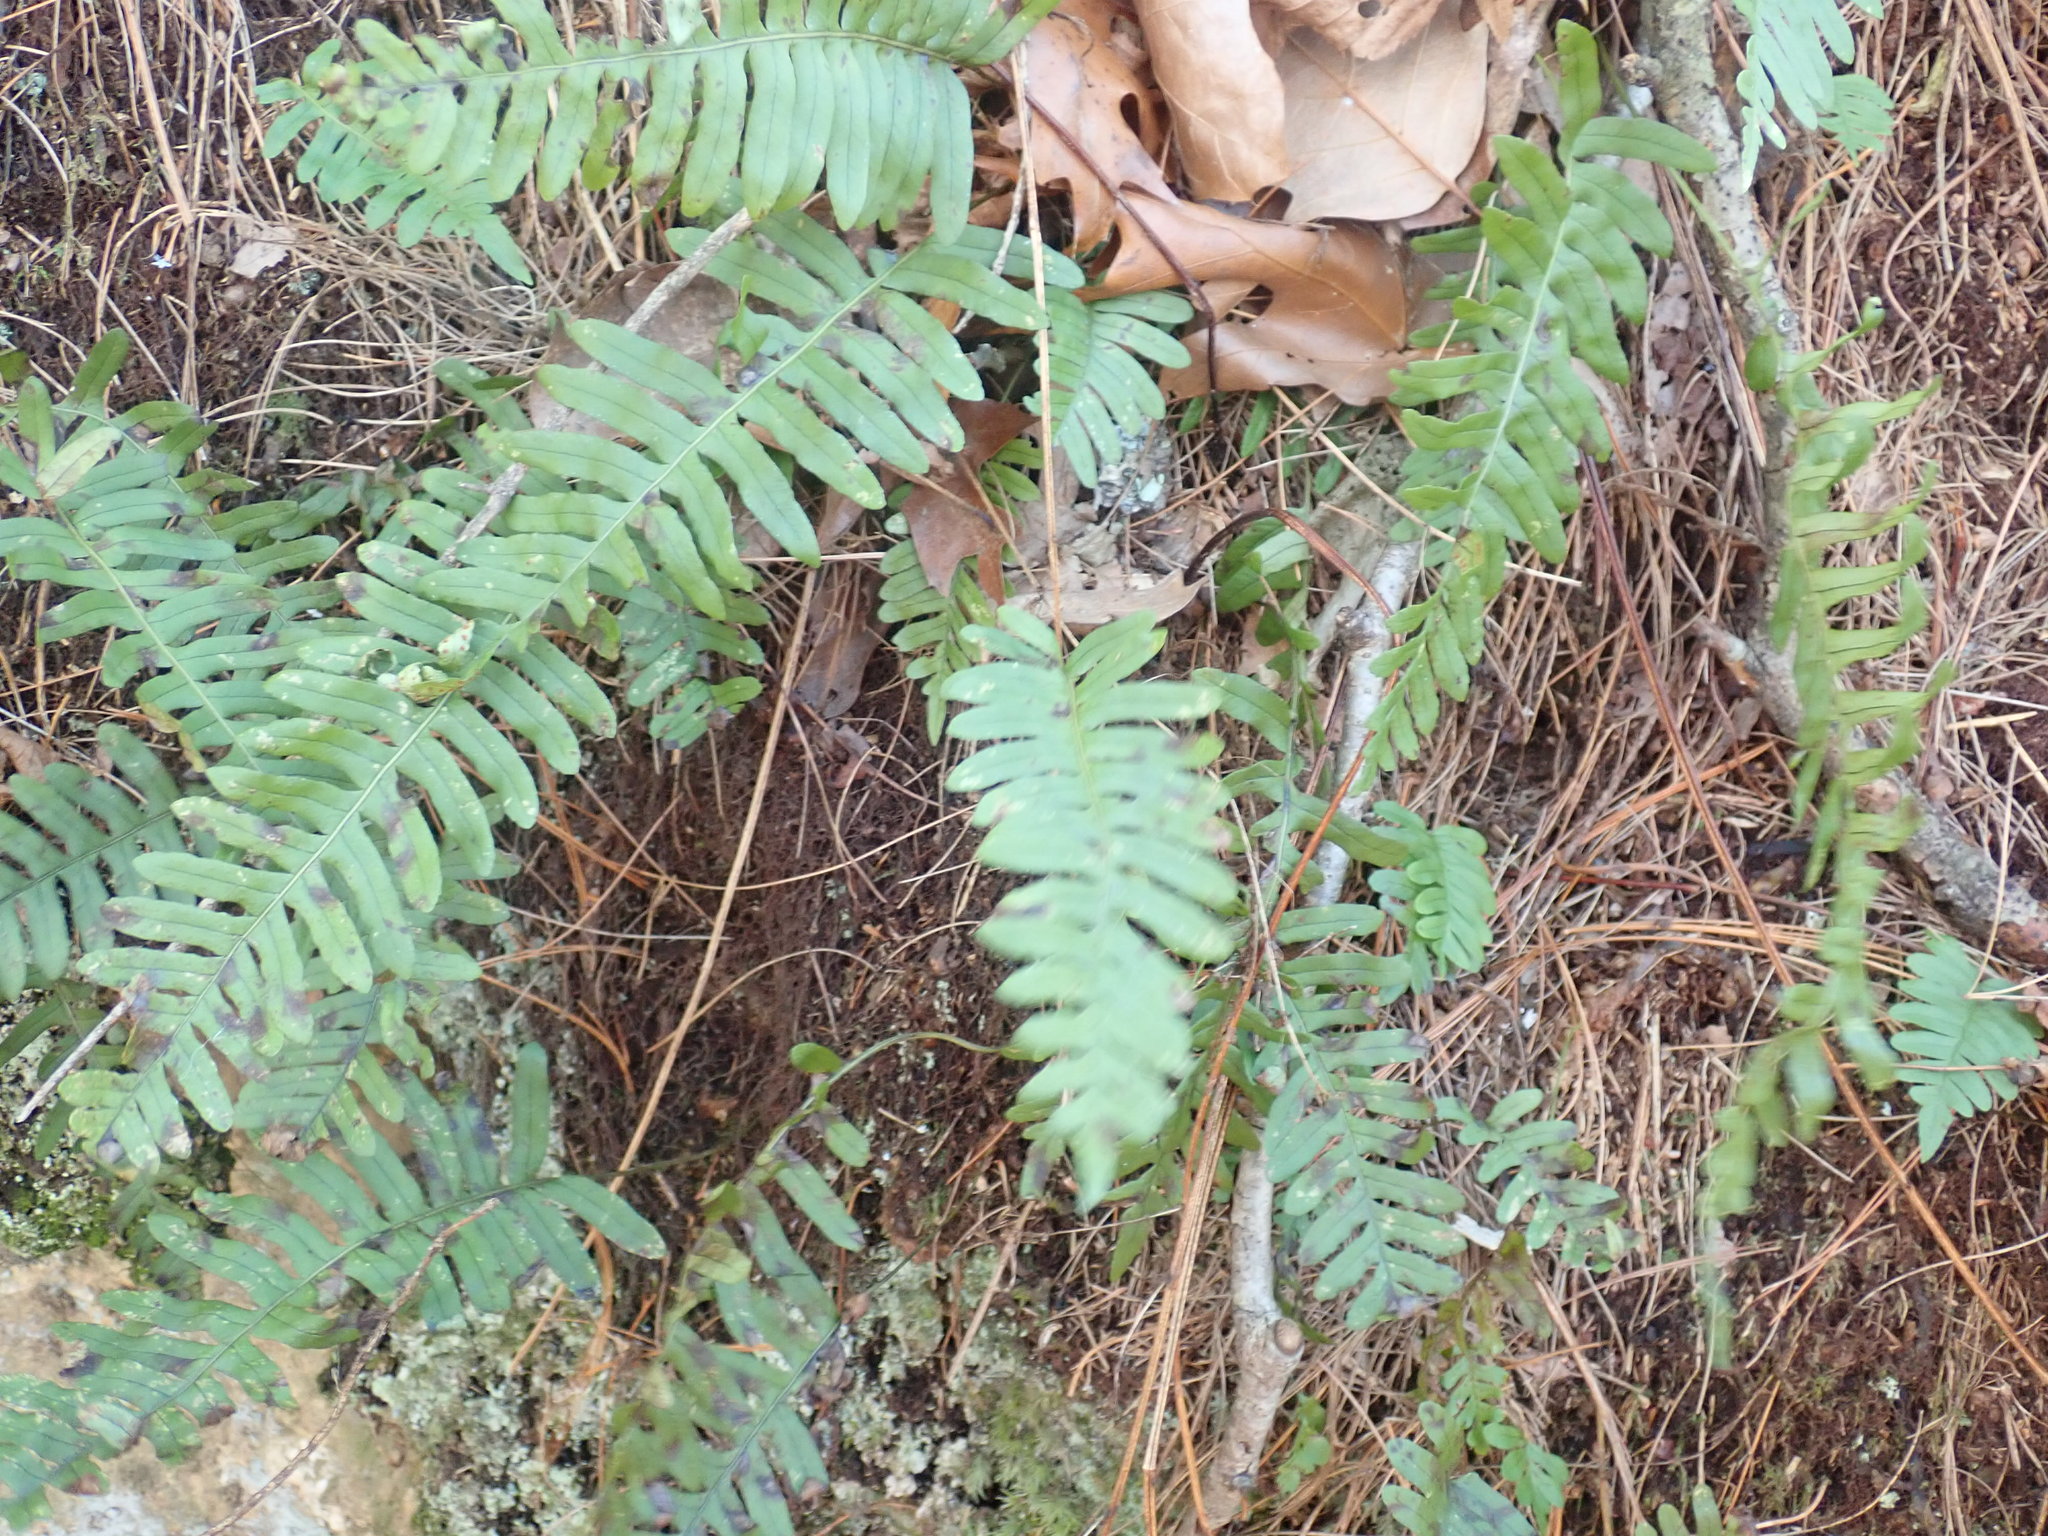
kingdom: Plantae
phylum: Tracheophyta
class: Polypodiopsida
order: Polypodiales
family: Polypodiaceae
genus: Polypodium
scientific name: Polypodium virginianum
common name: American wall fern
